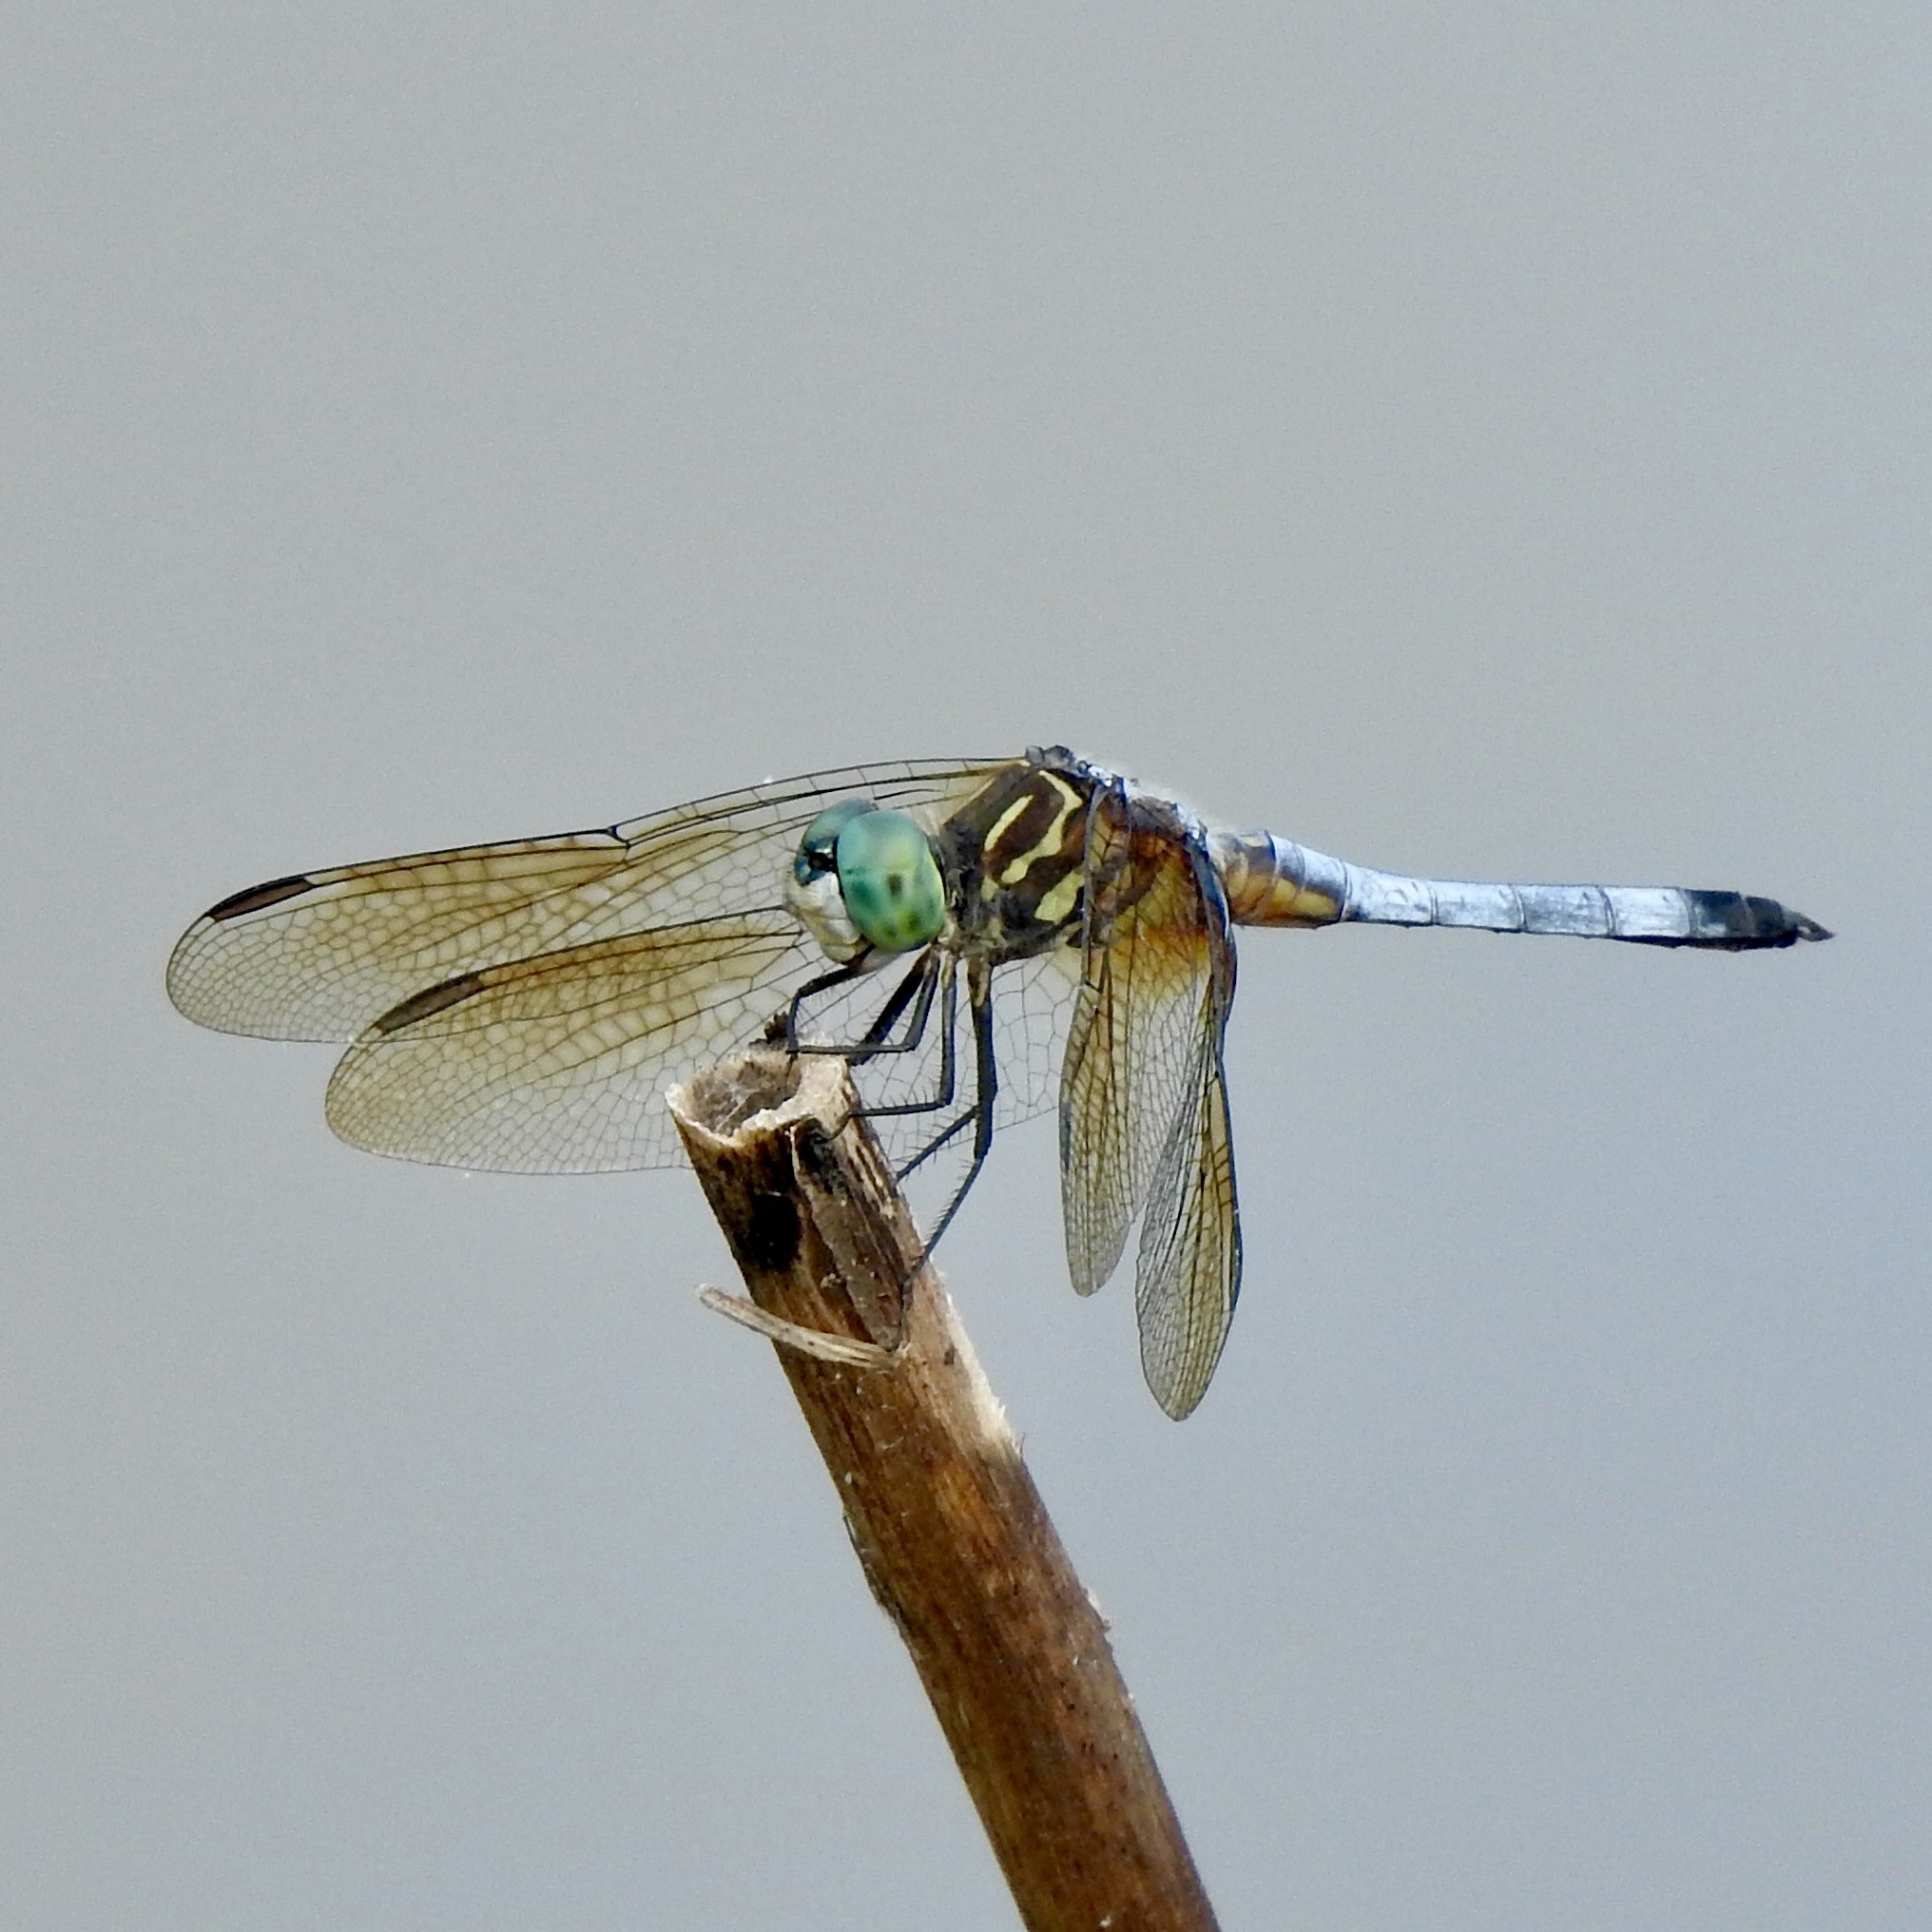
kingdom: Animalia
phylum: Arthropoda
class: Insecta
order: Odonata
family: Libellulidae
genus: Pachydiplax
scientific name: Pachydiplax longipennis
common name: Blue dasher
